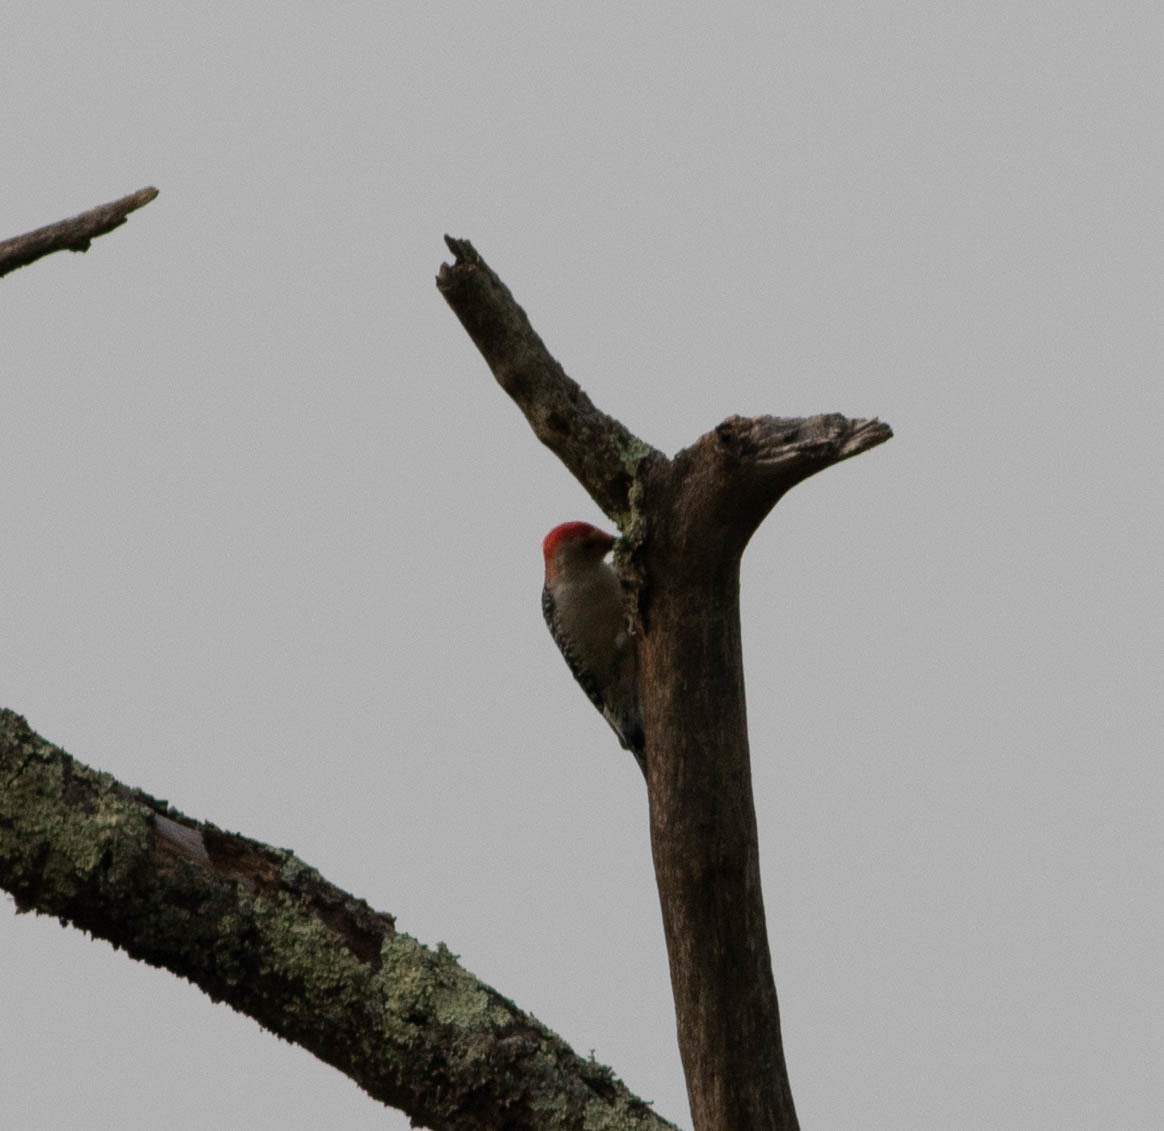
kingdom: Animalia
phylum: Chordata
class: Aves
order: Piciformes
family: Picidae
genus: Melanerpes
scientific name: Melanerpes carolinus
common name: Red-bellied woodpecker
